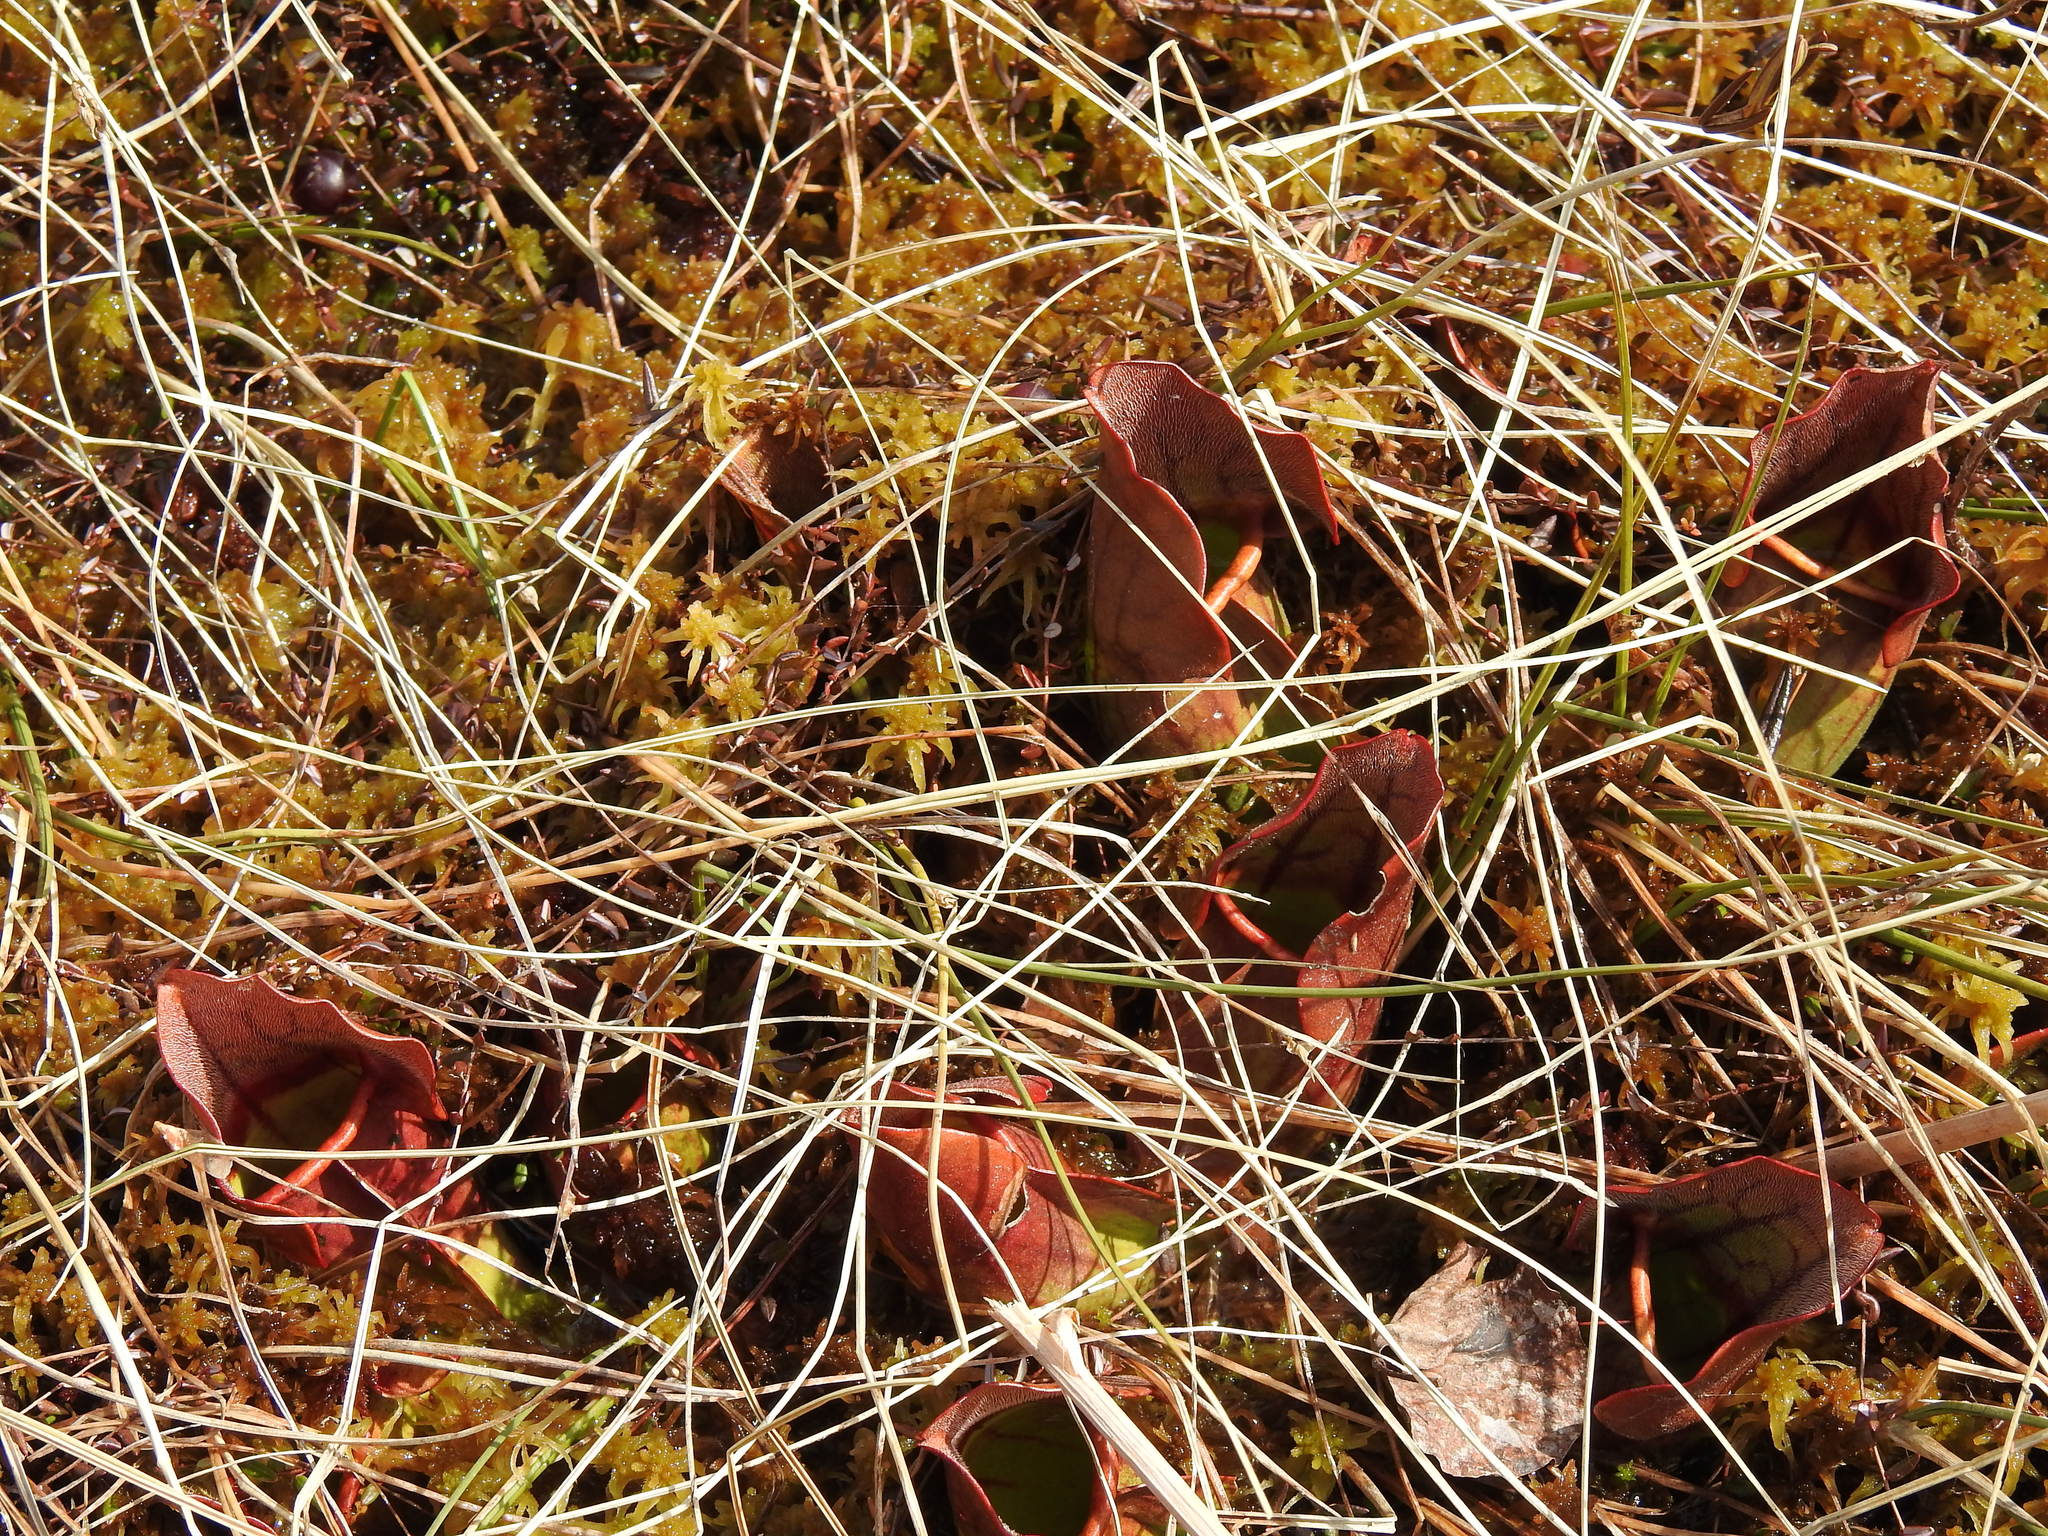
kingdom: Plantae
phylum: Tracheophyta
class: Magnoliopsida
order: Ericales
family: Sarraceniaceae
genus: Sarracenia
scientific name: Sarracenia purpurea
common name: Pitcherplant
